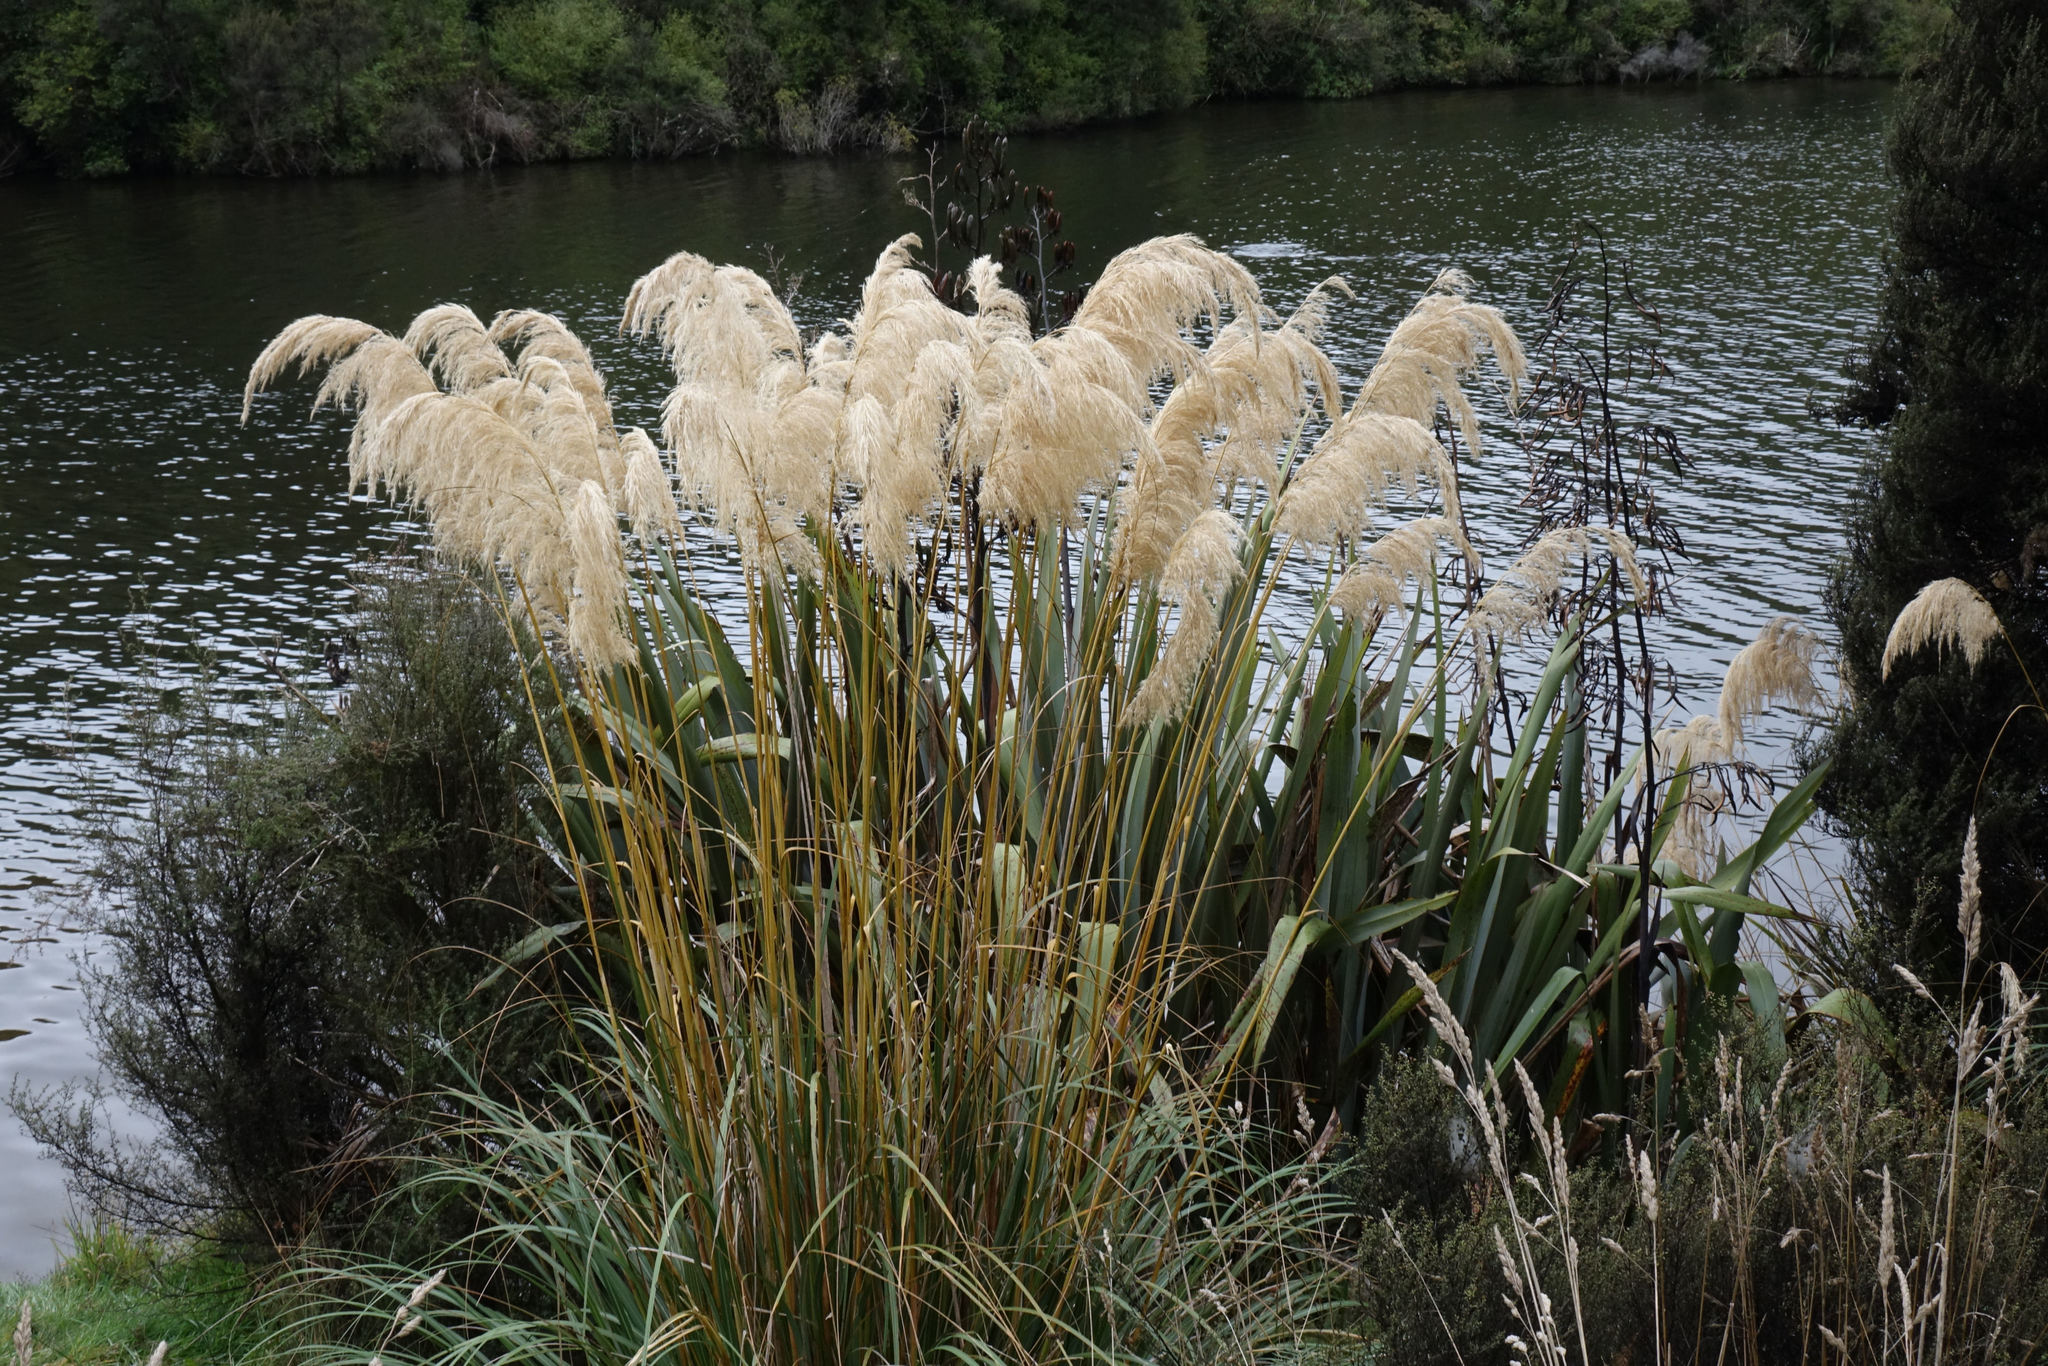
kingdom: Plantae
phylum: Tracheophyta
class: Liliopsida
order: Poales
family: Poaceae
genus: Austroderia
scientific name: Austroderia richardii
